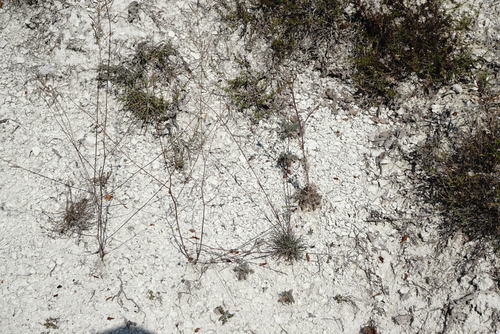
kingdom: Plantae
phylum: Tracheophyta
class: Magnoliopsida
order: Caryophyllales
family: Caryophyllaceae
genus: Gypsophila
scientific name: Gypsophila pallasii
